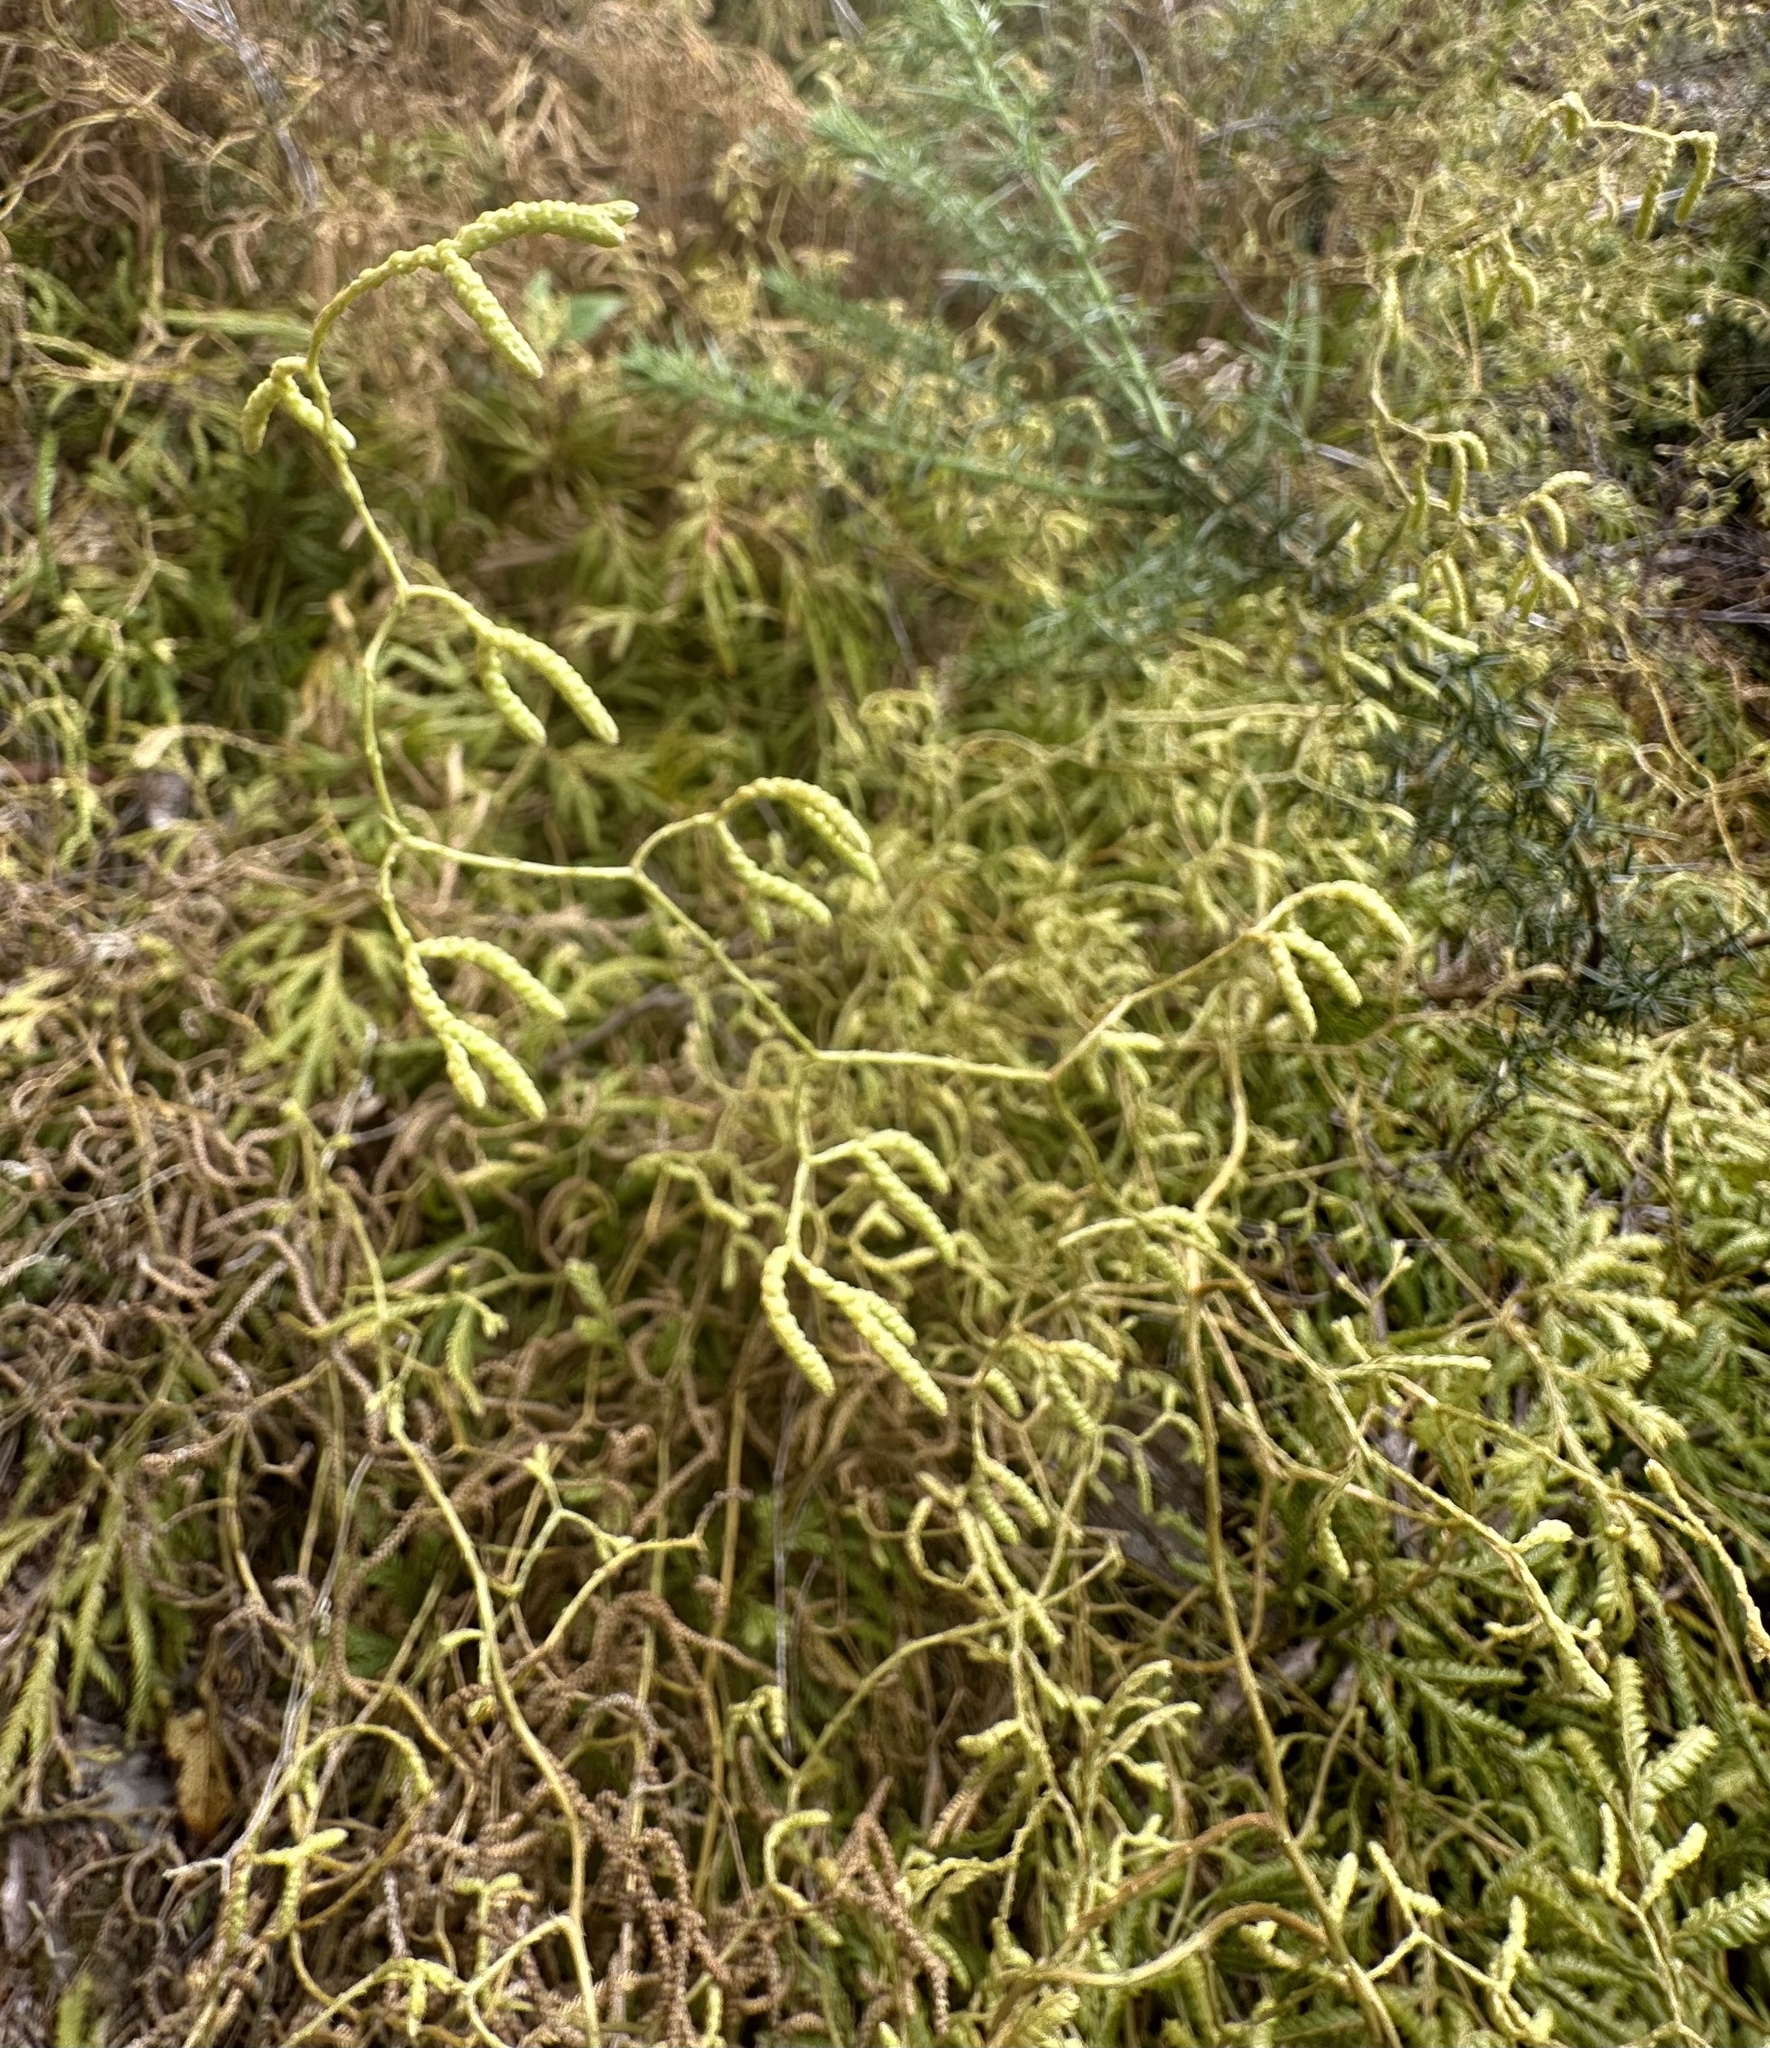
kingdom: Plantae
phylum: Tracheophyta
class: Lycopodiopsida
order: Lycopodiales
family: Lycopodiaceae
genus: Lycopodium
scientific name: Lycopodium volubile
